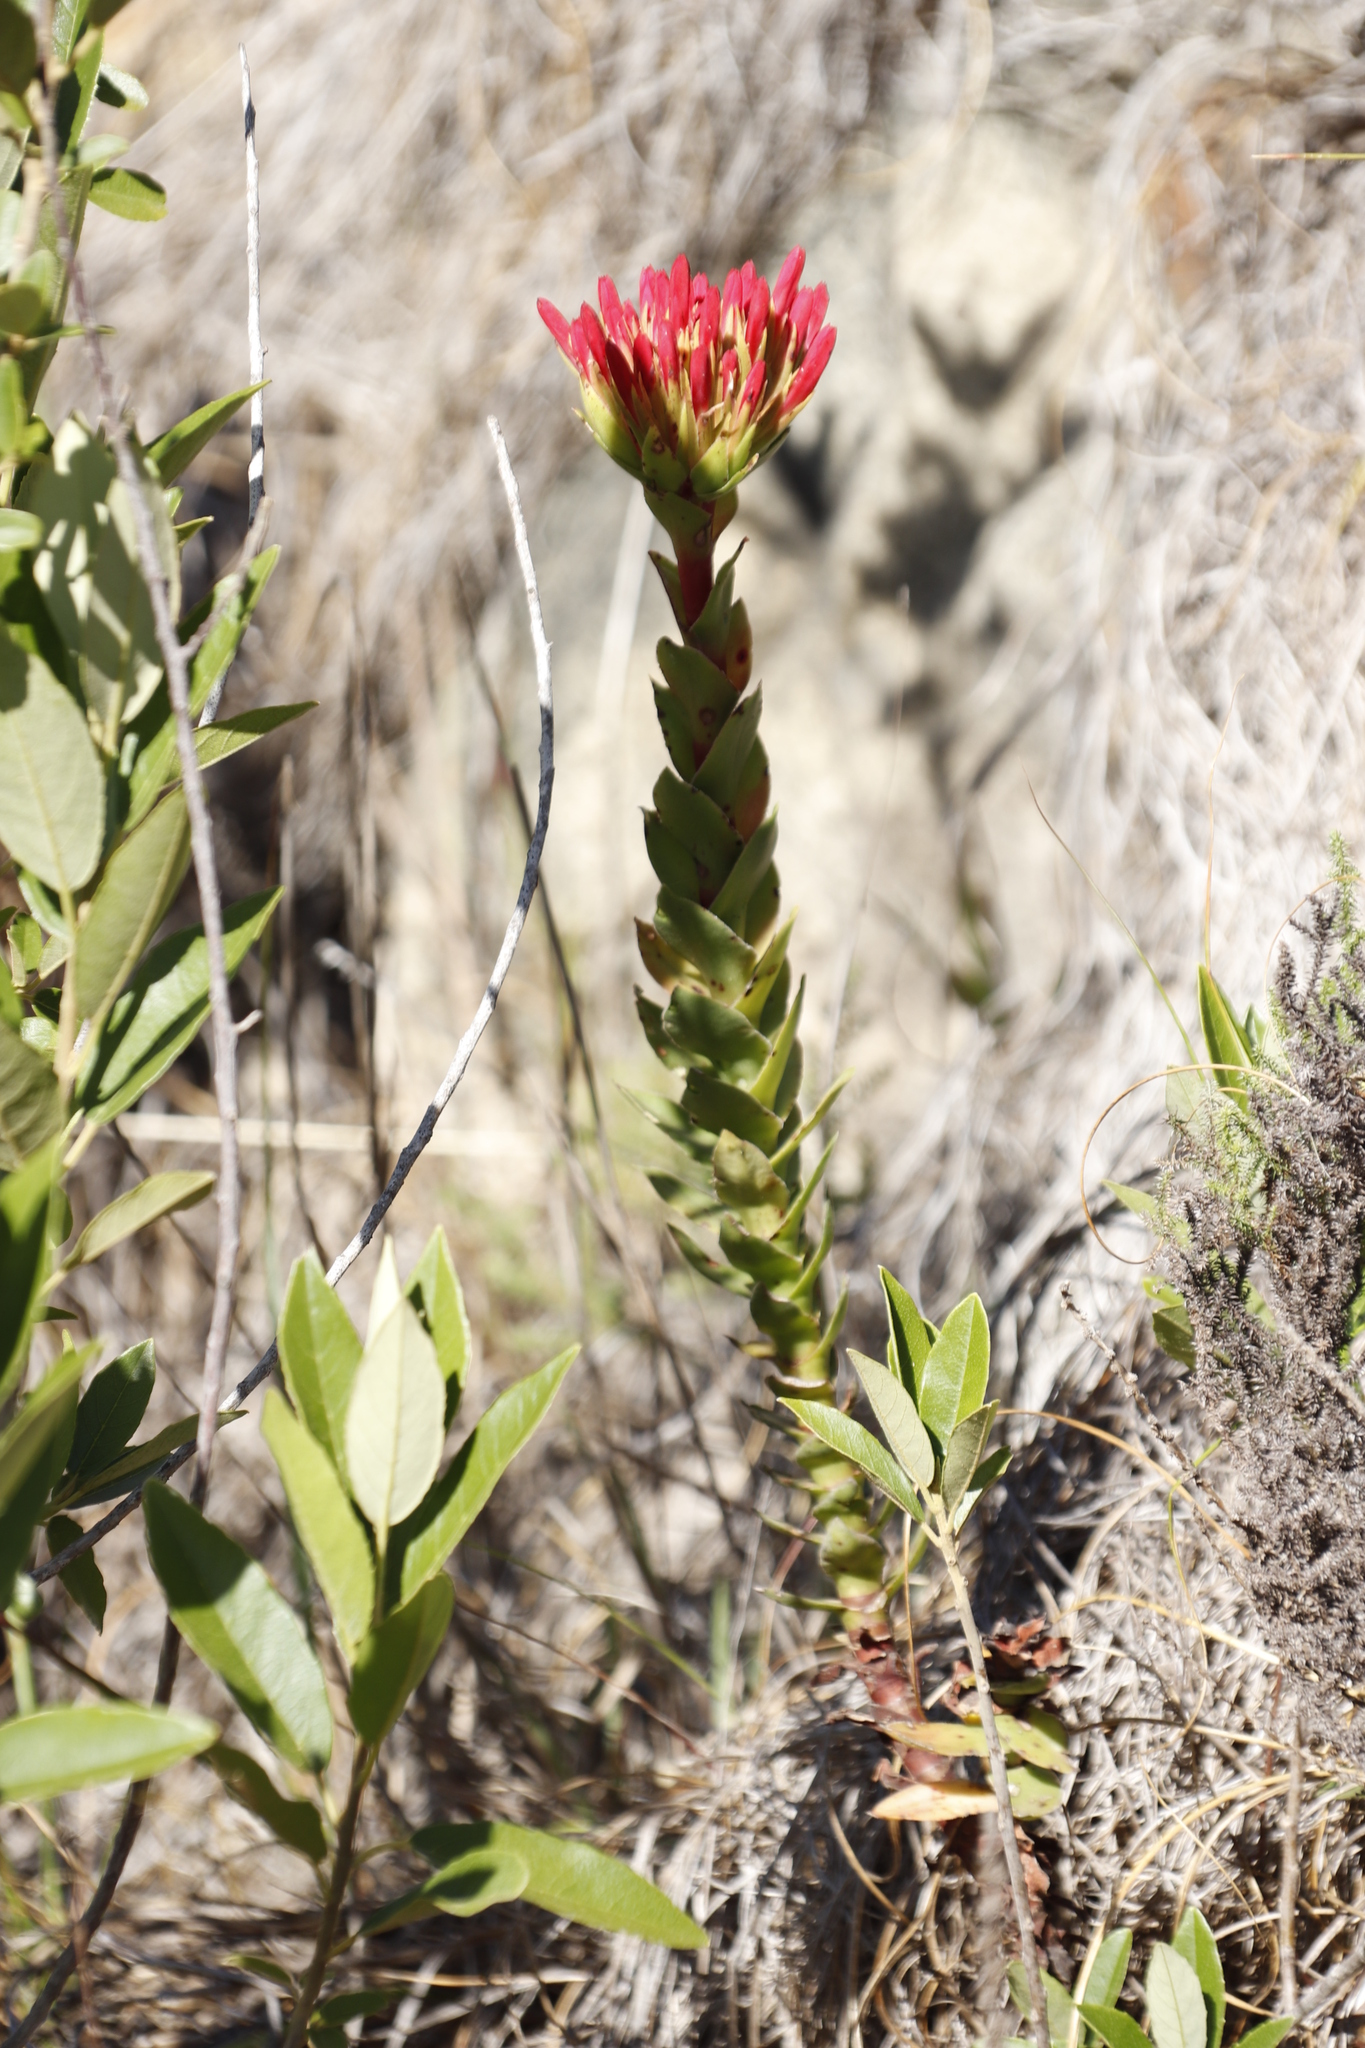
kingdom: Plantae
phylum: Tracheophyta
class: Magnoliopsida
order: Saxifragales
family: Crassulaceae
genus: Crassula
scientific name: Crassula coccinea
